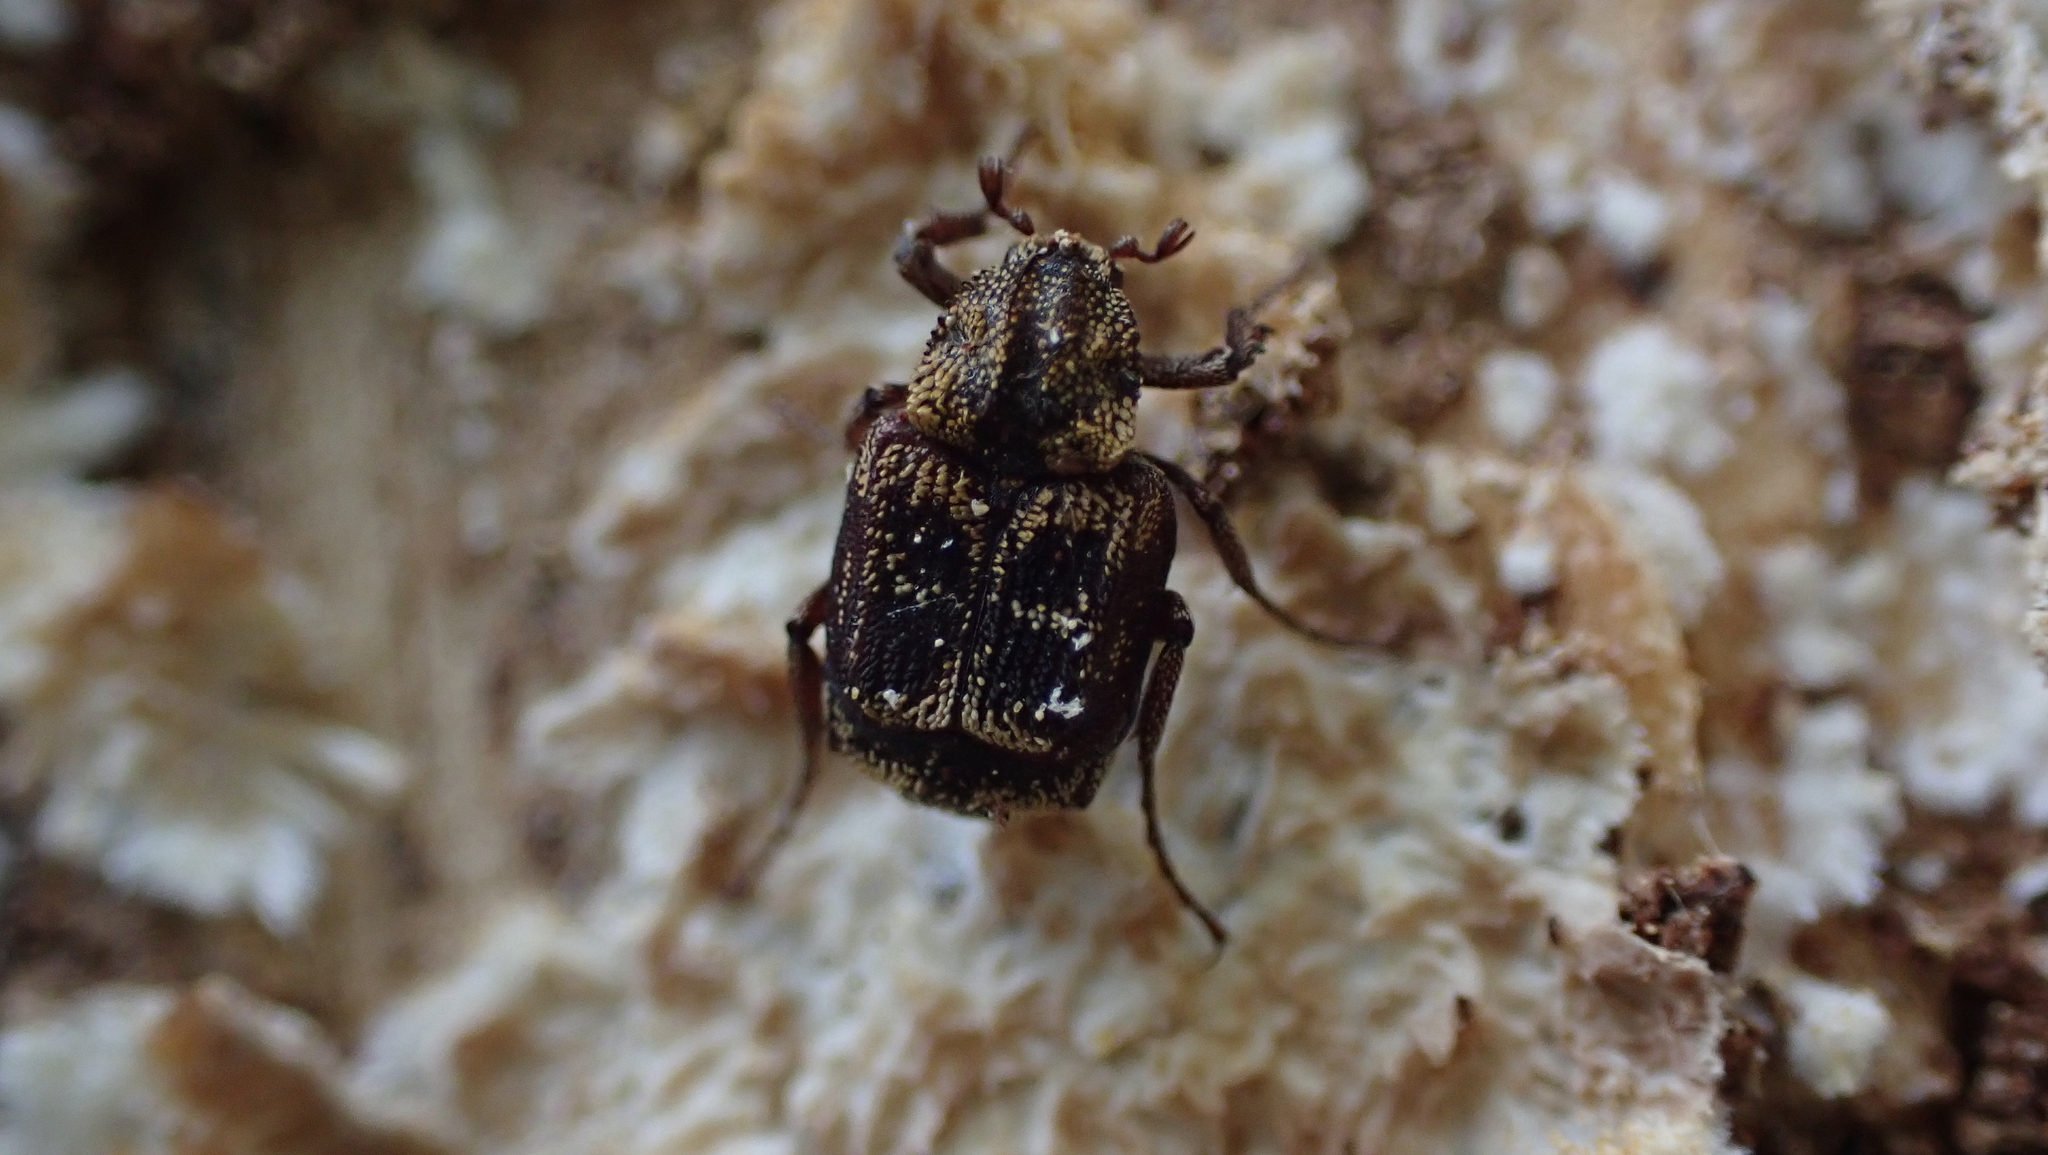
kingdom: Animalia
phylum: Arthropoda
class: Insecta
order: Coleoptera
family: Scarabaeidae
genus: Valgus
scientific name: Valgus canaliculatus
